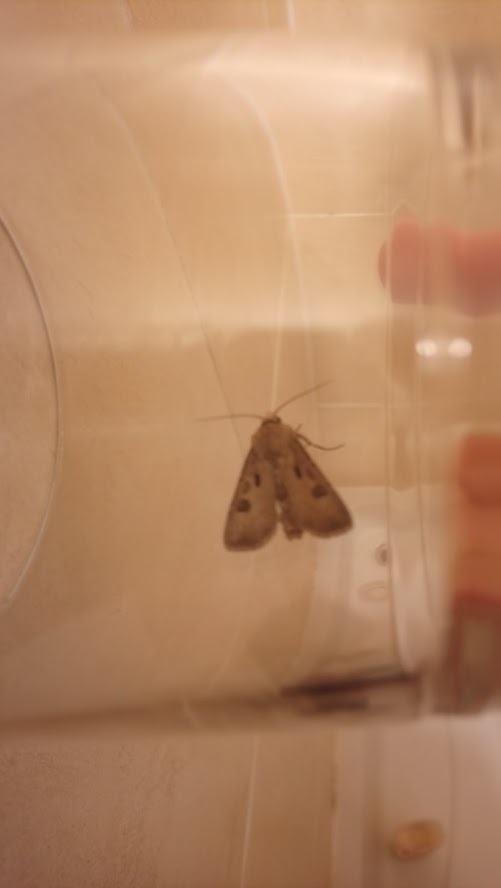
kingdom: Animalia
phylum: Arthropoda
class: Insecta
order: Lepidoptera
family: Noctuidae
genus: Agrotis
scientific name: Agrotis exclamationis
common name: Heart and dart
